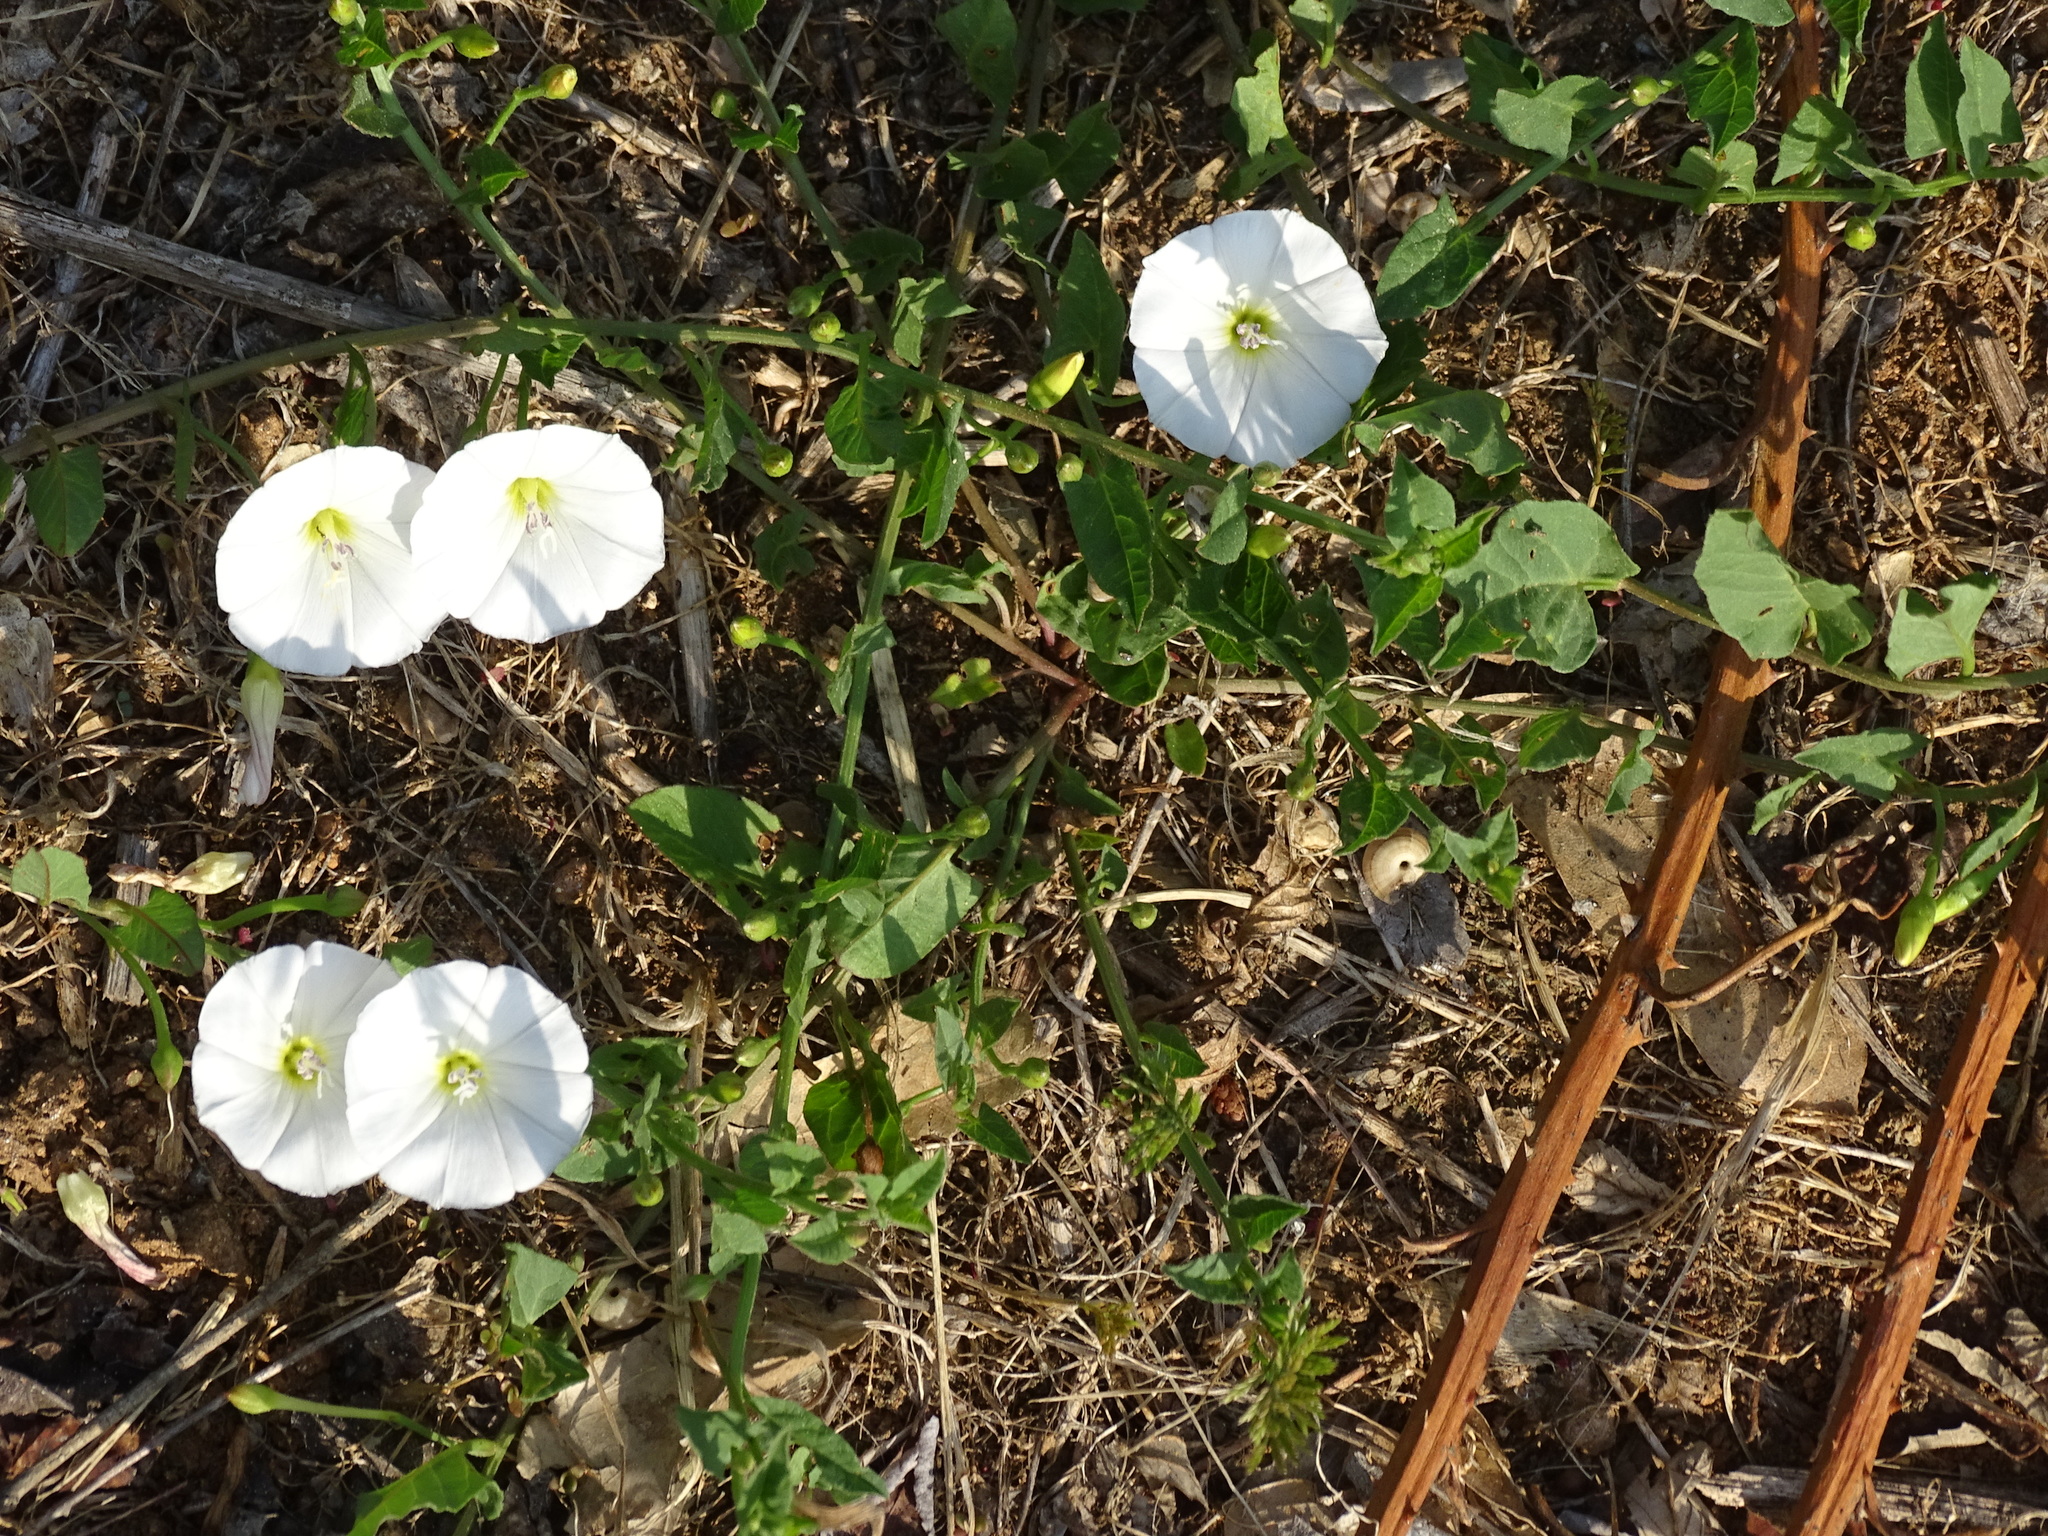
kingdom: Plantae
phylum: Tracheophyta
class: Magnoliopsida
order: Solanales
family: Convolvulaceae
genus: Convolvulus
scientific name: Convolvulus arvensis
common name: Field bindweed
